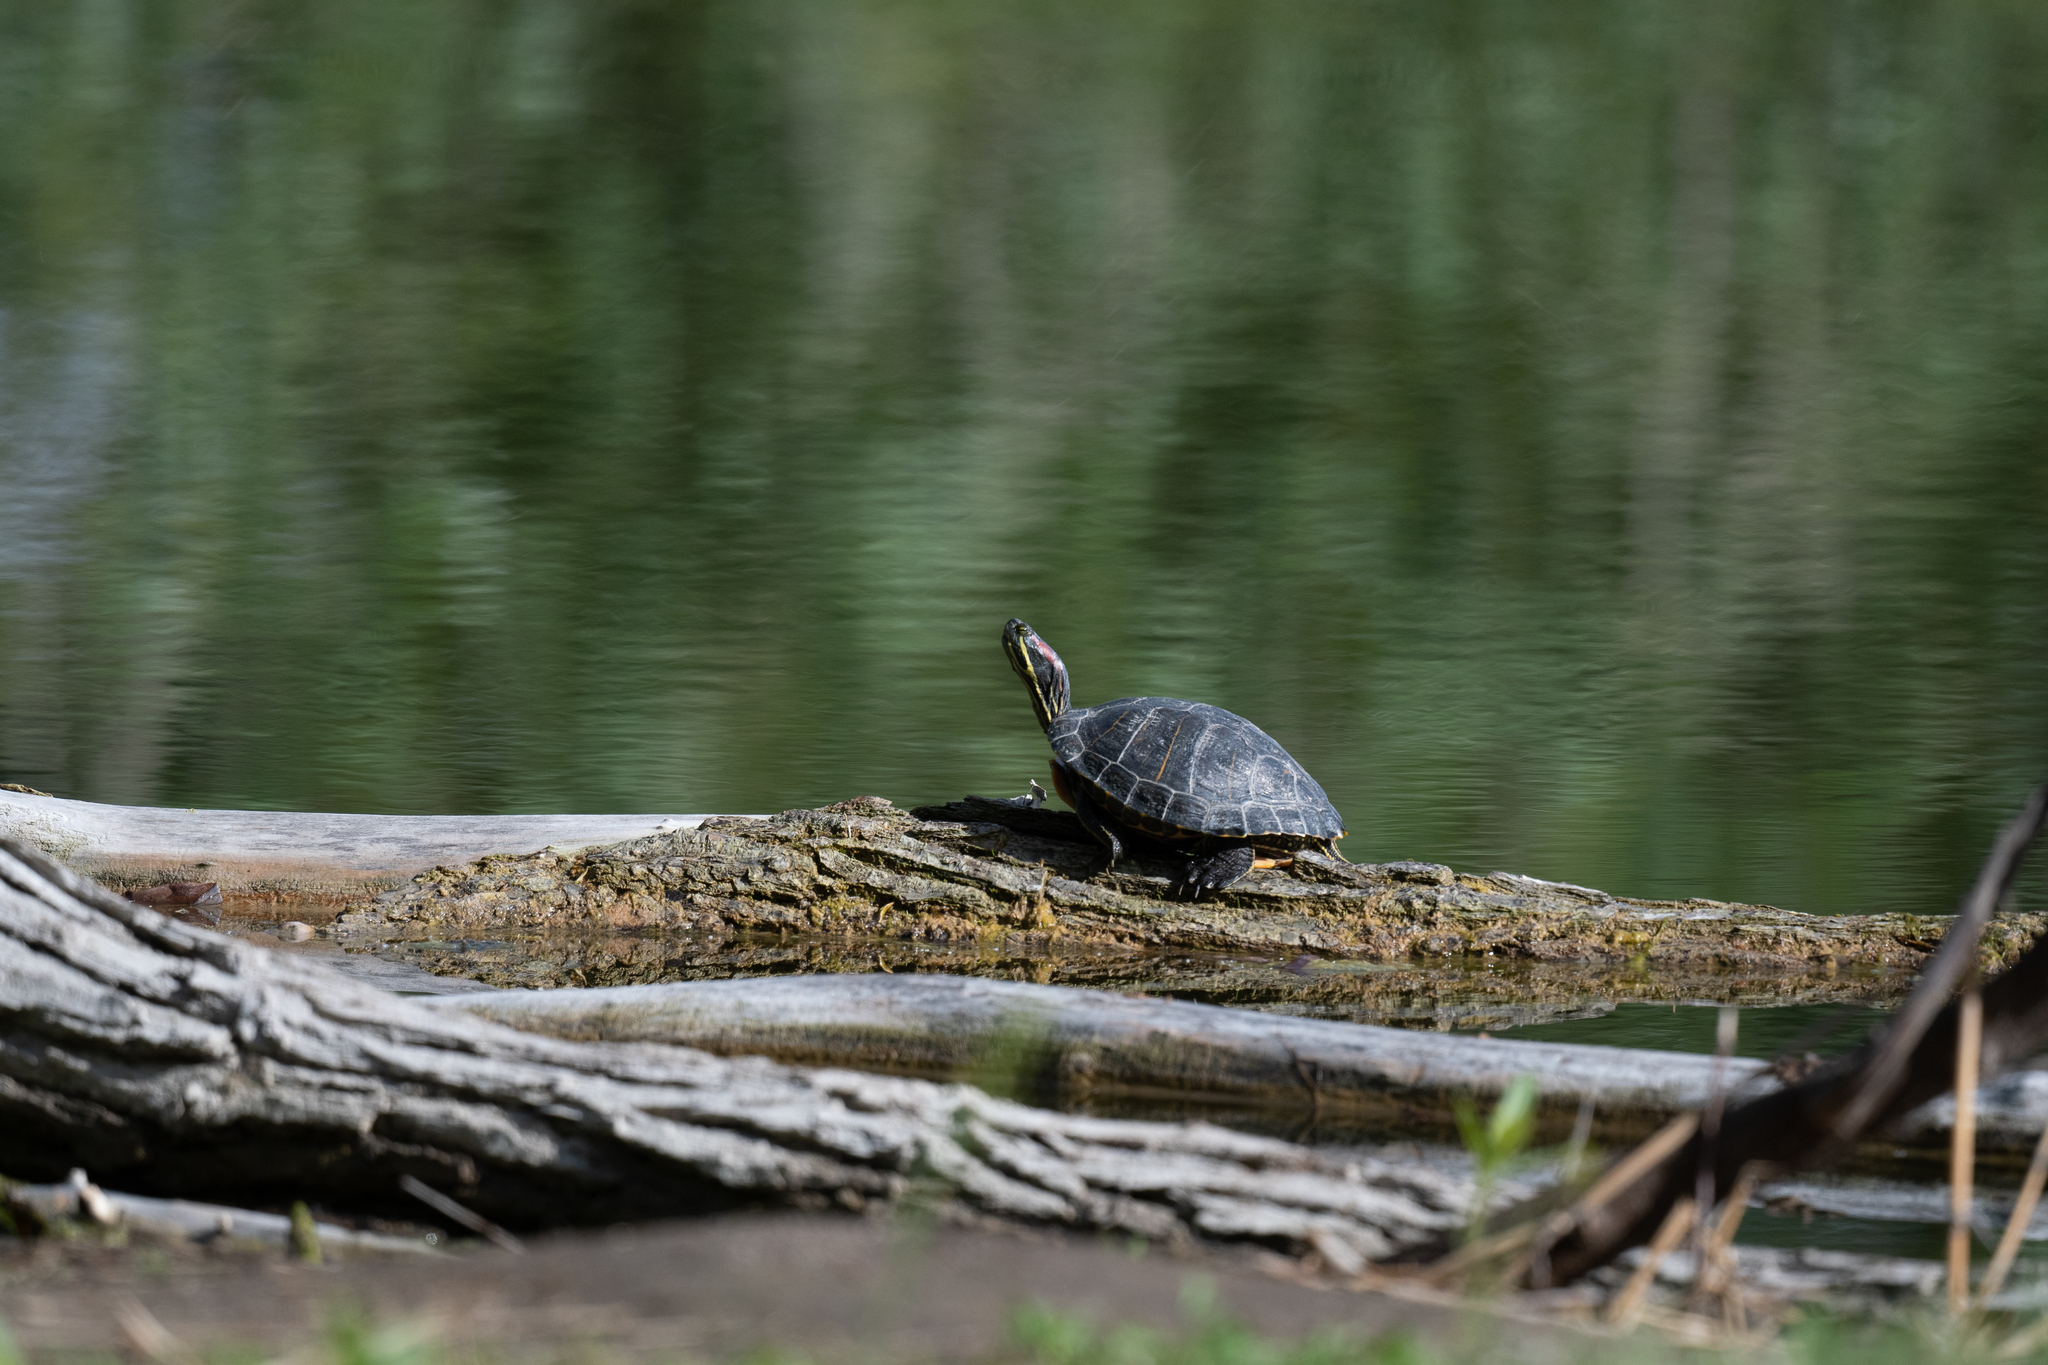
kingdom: Animalia
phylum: Chordata
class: Testudines
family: Emydidae
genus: Trachemys
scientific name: Trachemys scripta
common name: Slider
